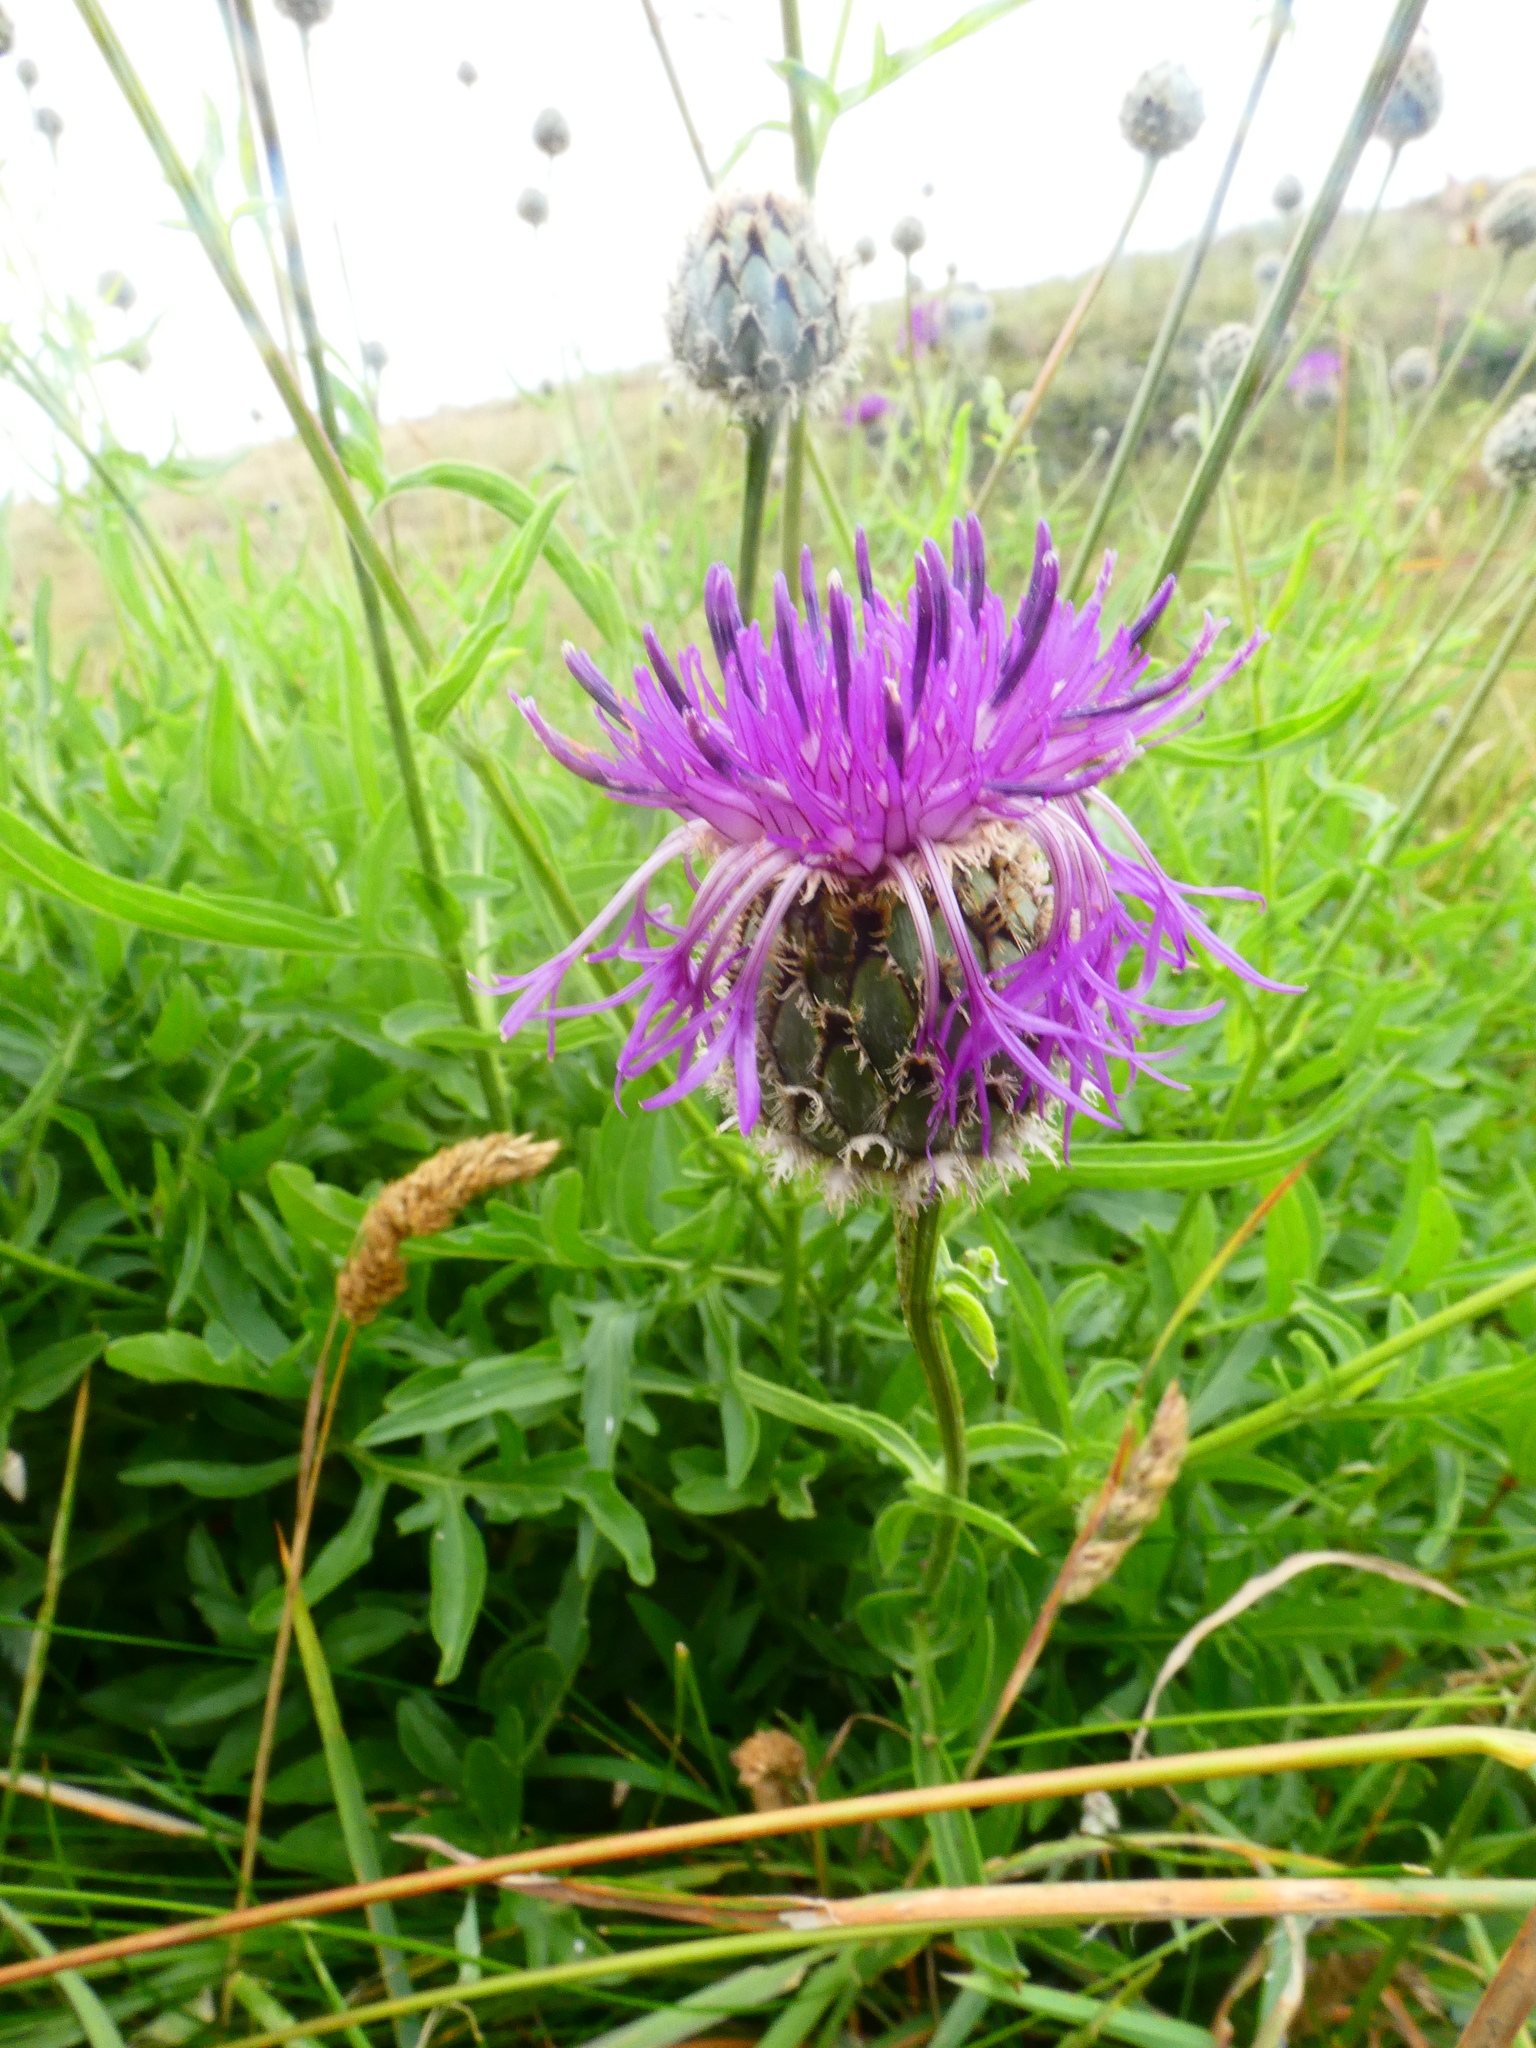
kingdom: Plantae
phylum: Tracheophyta
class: Magnoliopsida
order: Asterales
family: Asteraceae
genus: Centaurea
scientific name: Centaurea scabiosa
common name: Greater knapweed
